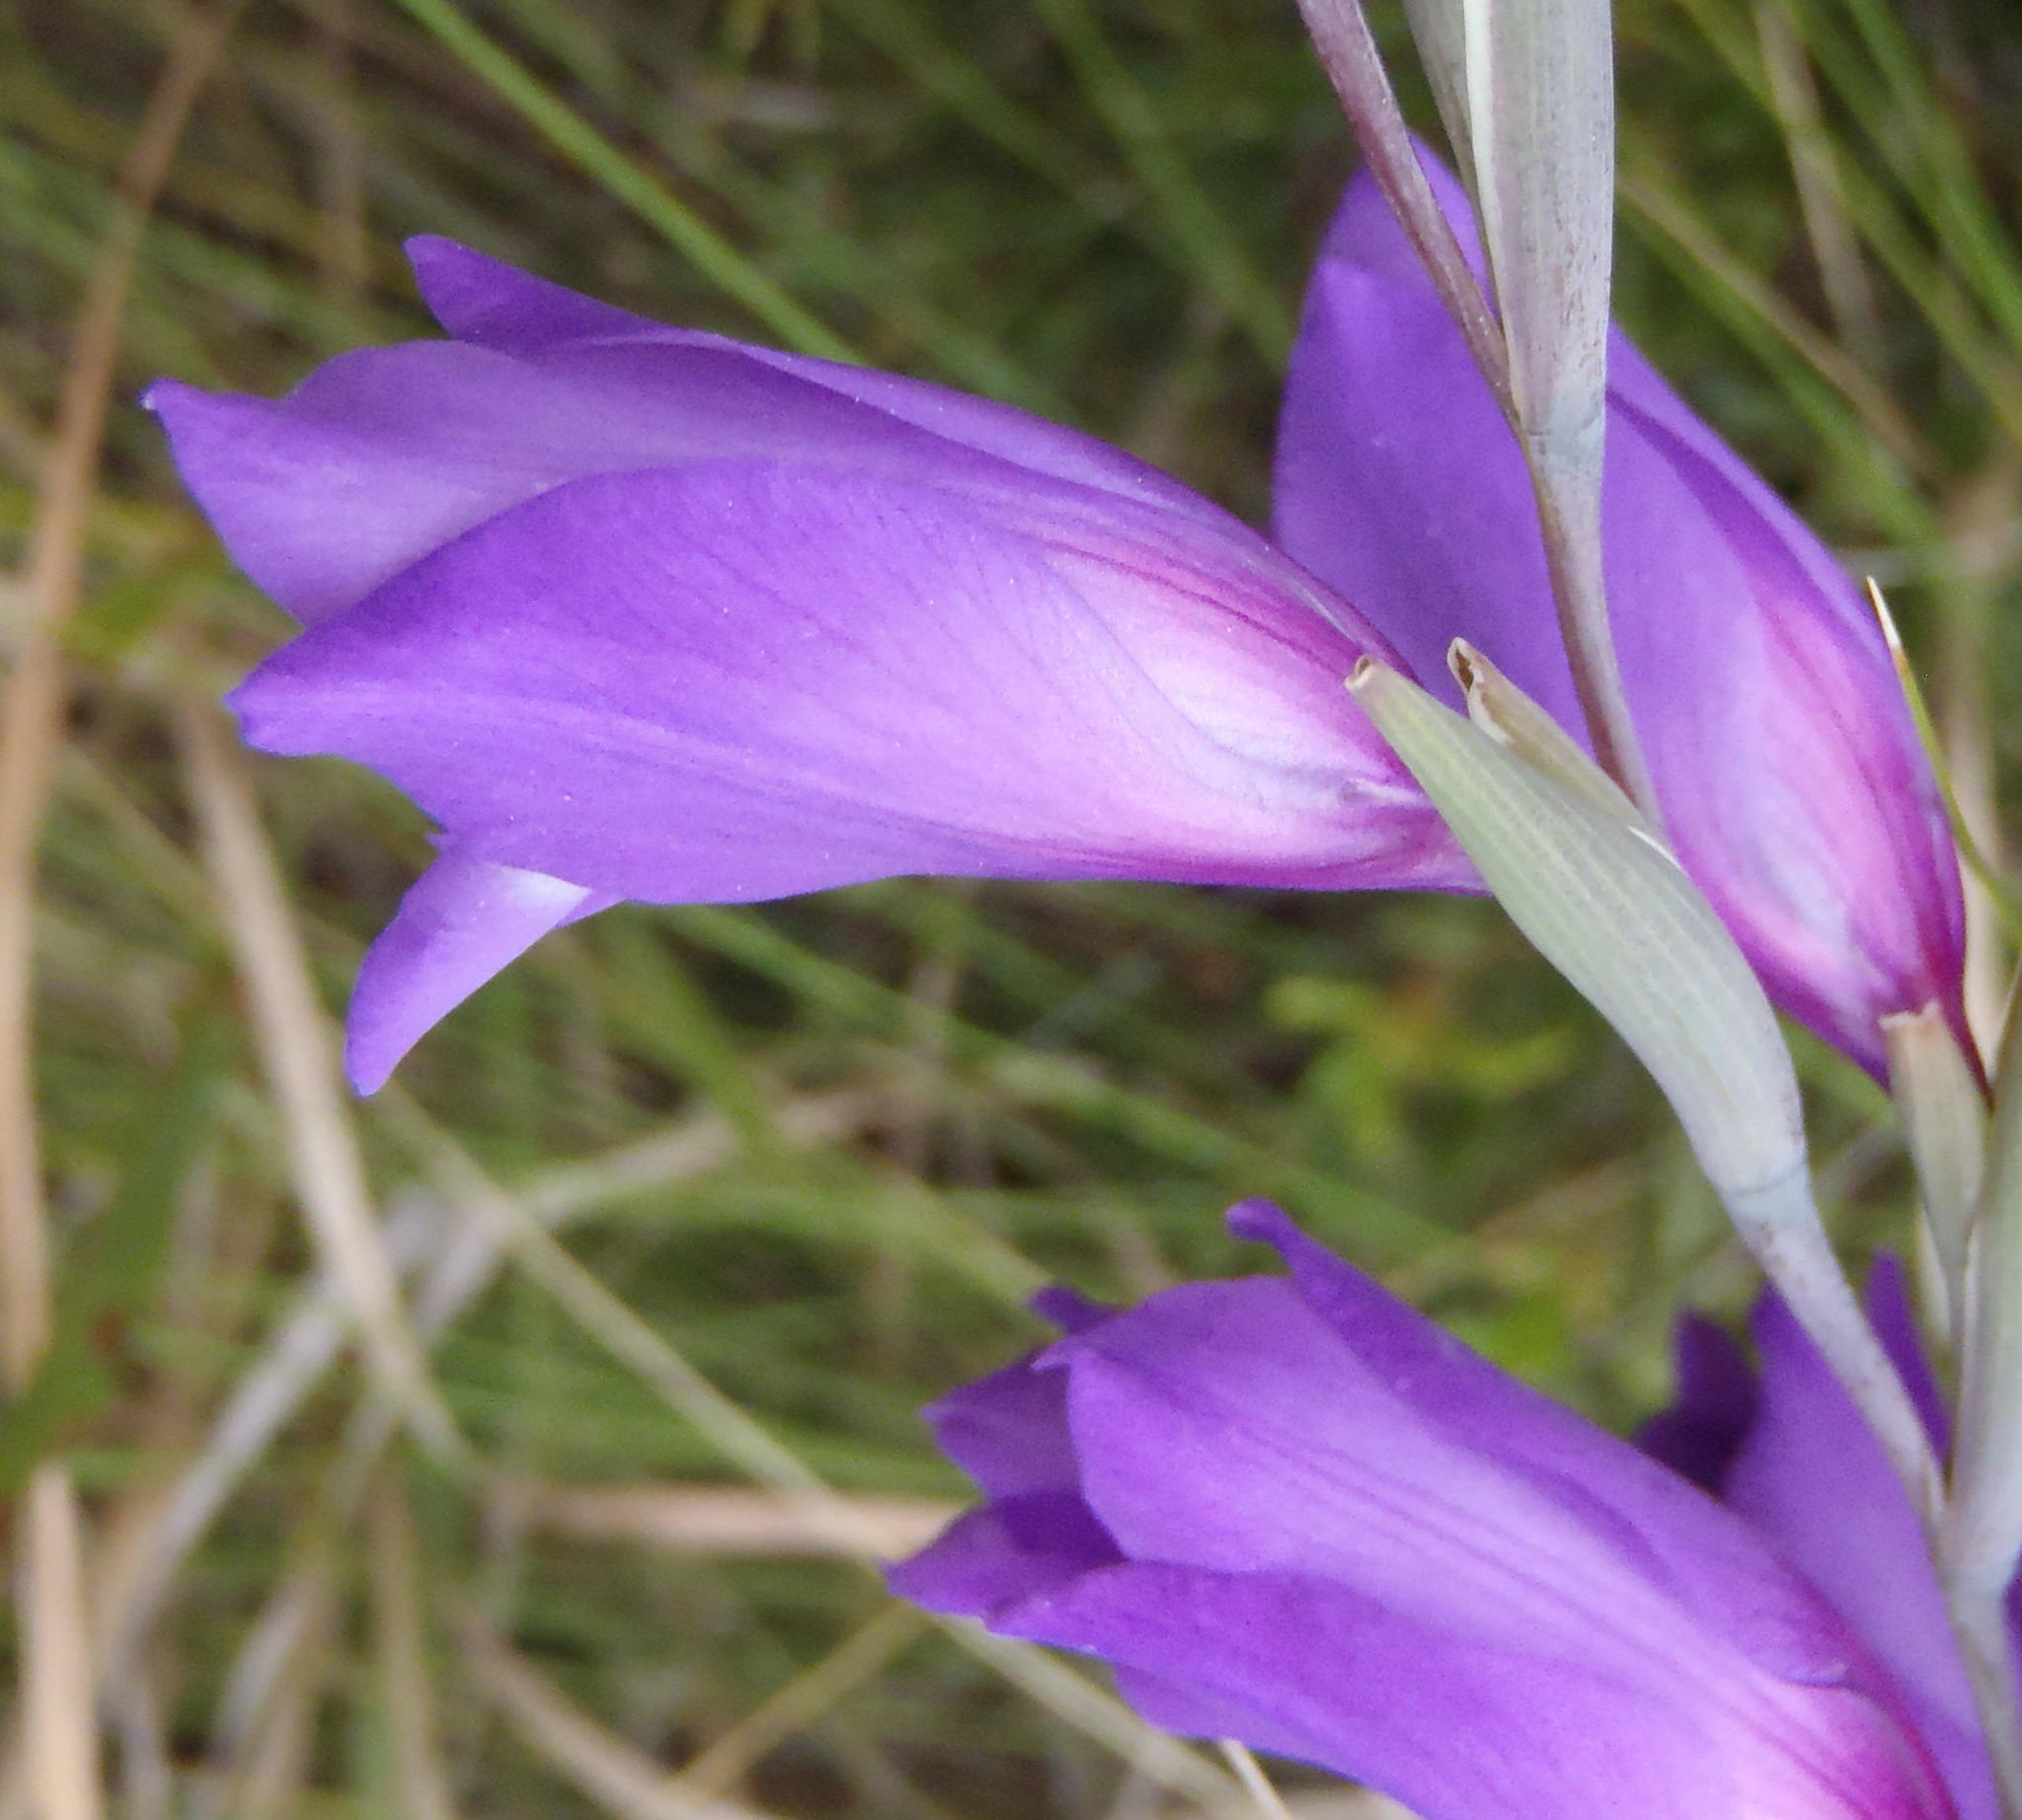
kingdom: Plantae
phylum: Tracheophyta
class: Liliopsida
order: Asparagales
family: Iridaceae
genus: Gladiolus
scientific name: Gladiolus carinatus
